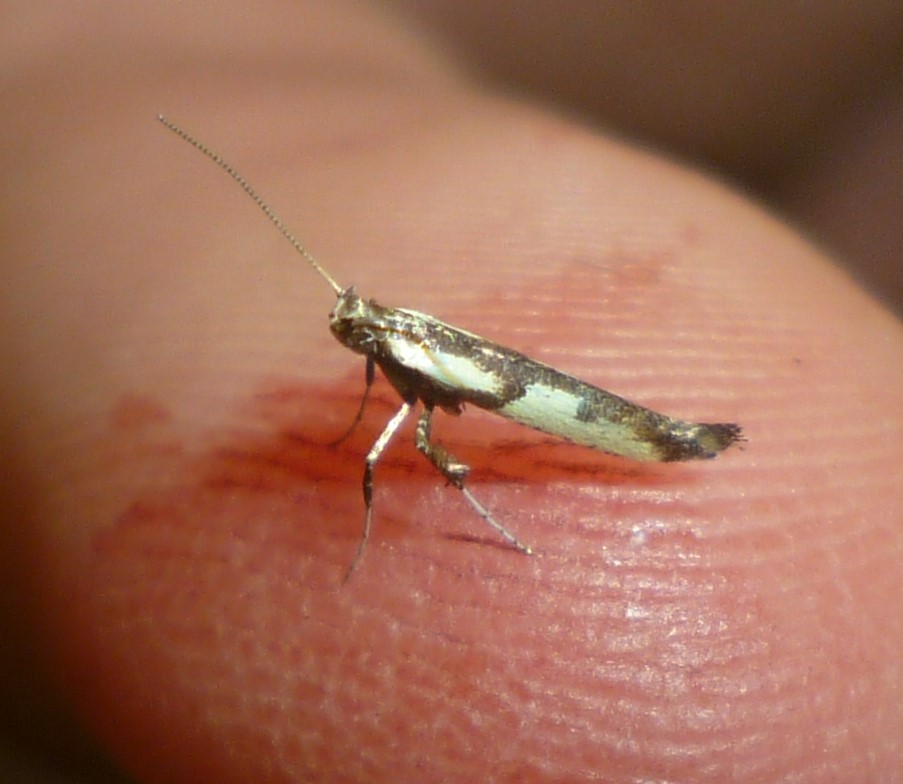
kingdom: Animalia
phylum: Arthropoda
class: Insecta
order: Lepidoptera
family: Gracillariidae
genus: Caloptilia
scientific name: Caloptilia blandella
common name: Walnut caloptilia moth
